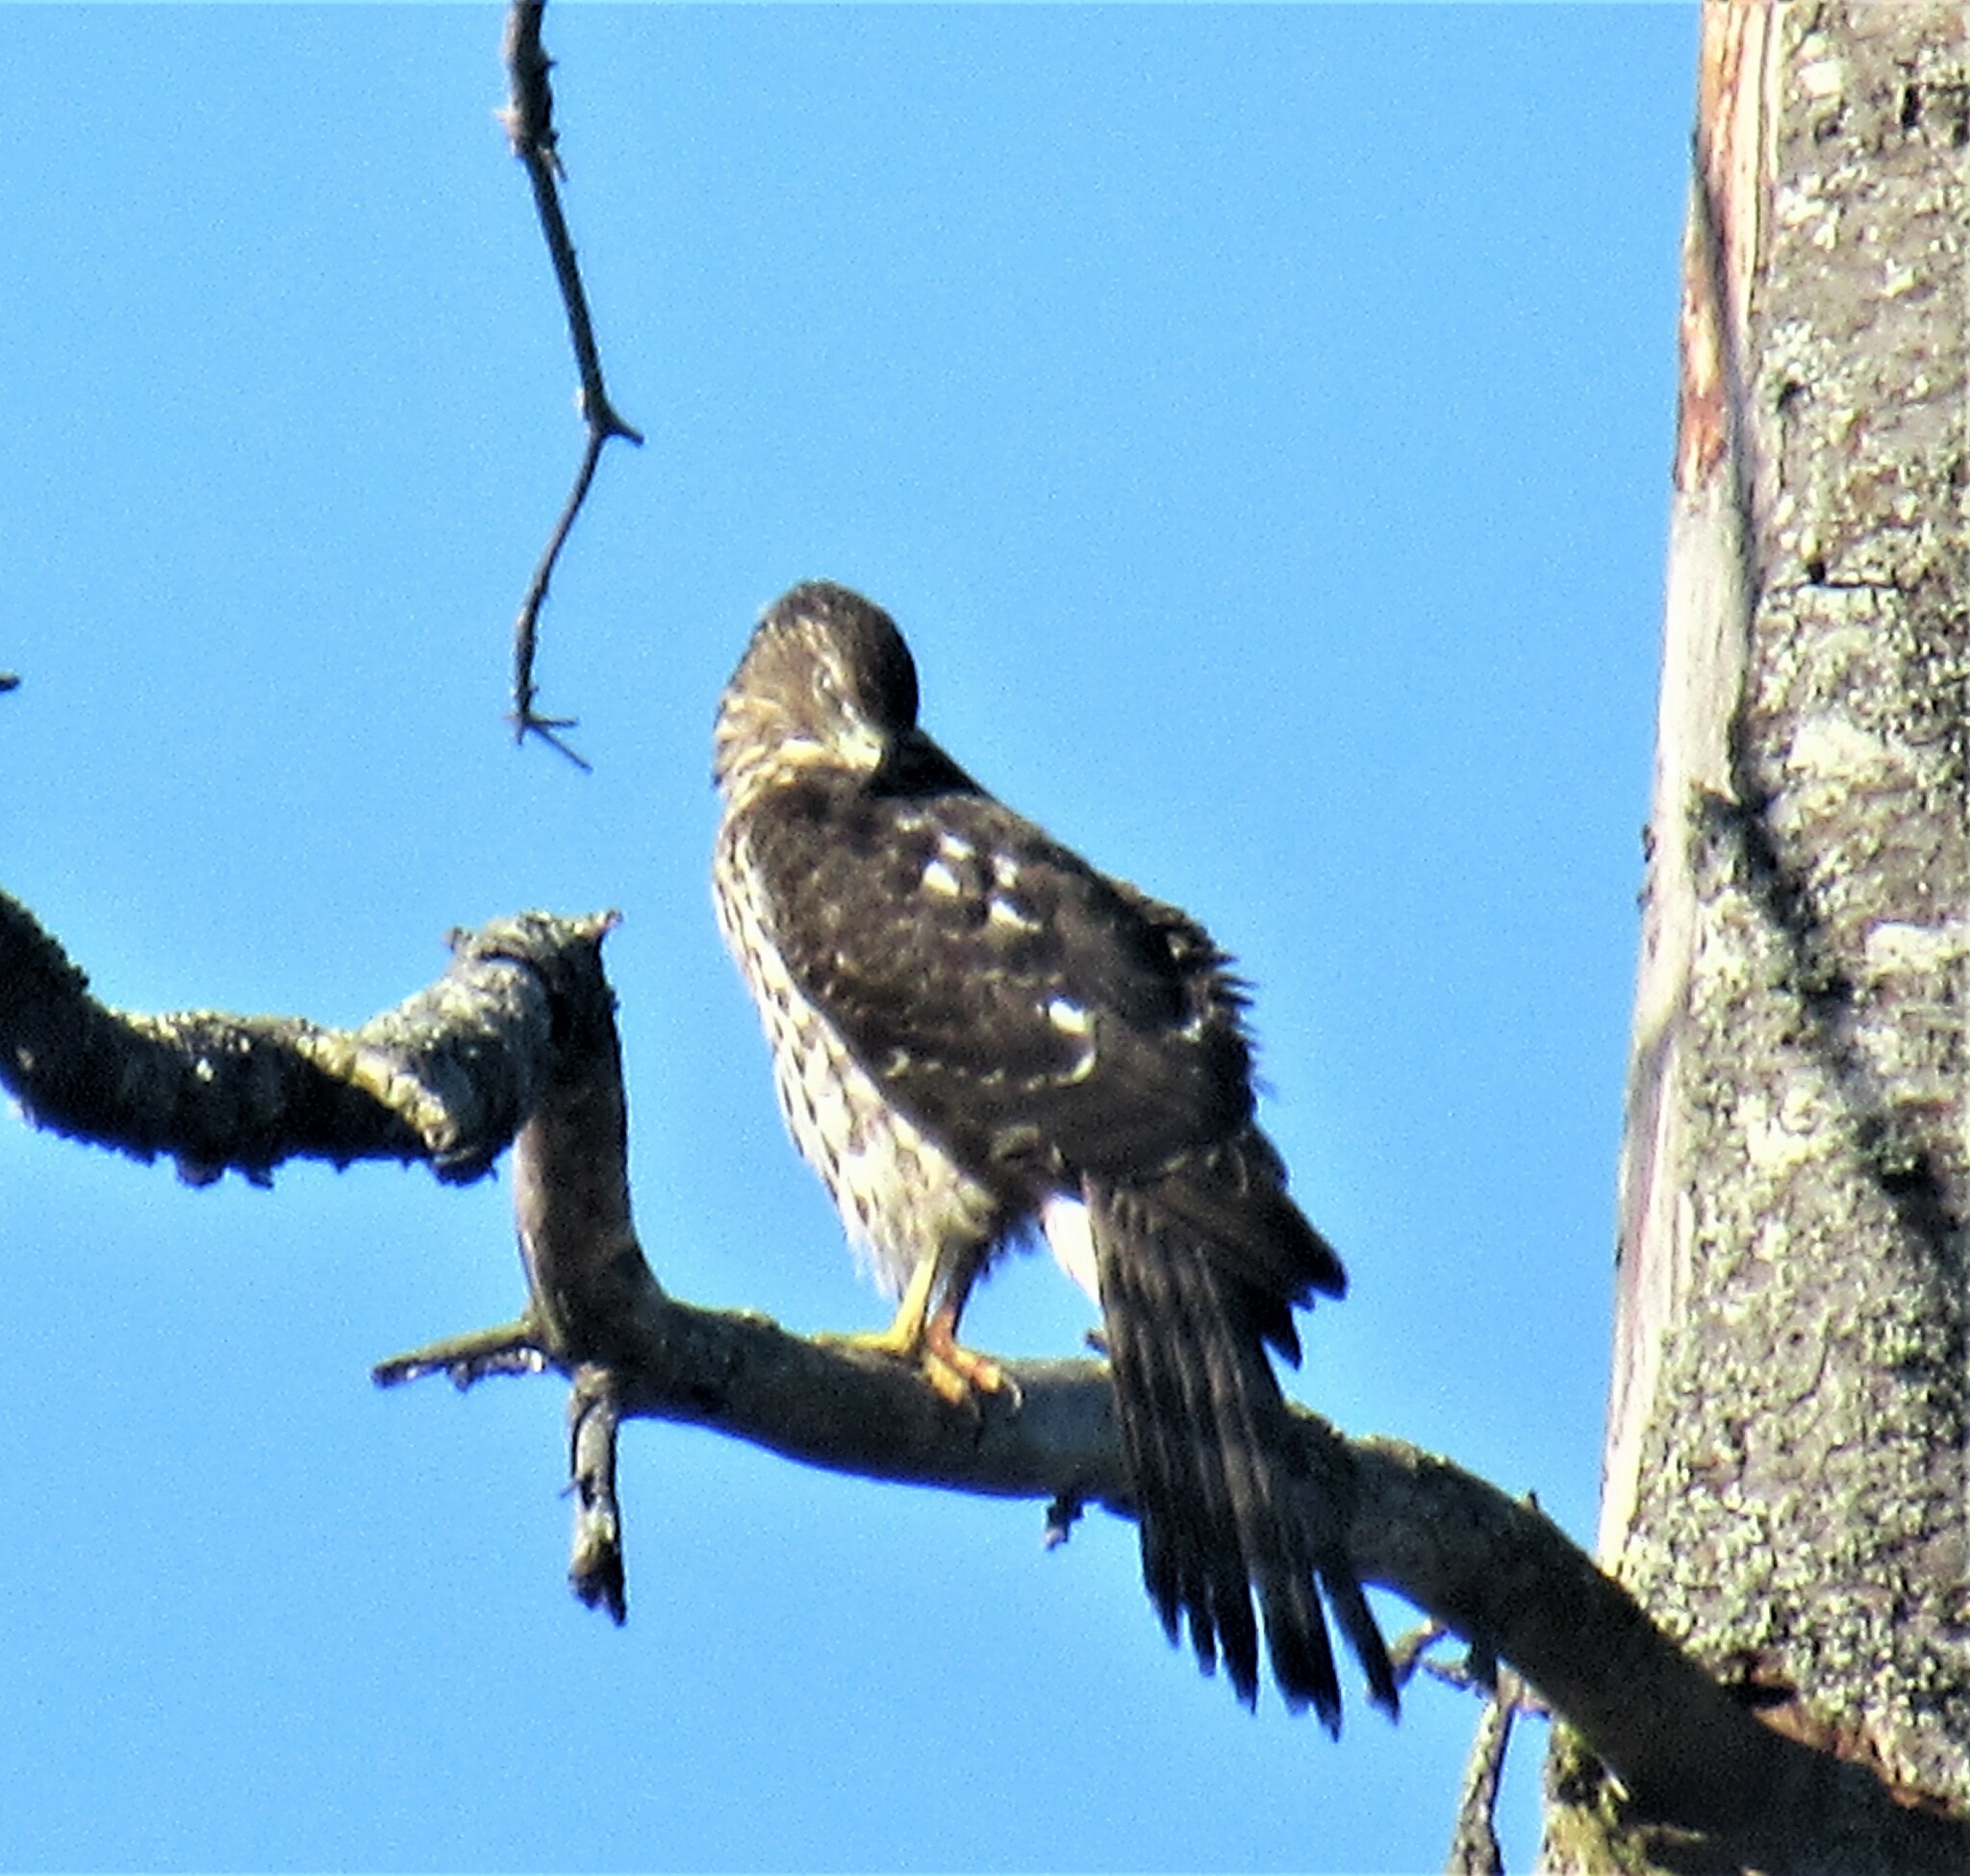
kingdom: Animalia
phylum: Chordata
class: Aves
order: Accipitriformes
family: Accipitridae
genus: Accipiter
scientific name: Accipiter cooperii
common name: Cooper's hawk
